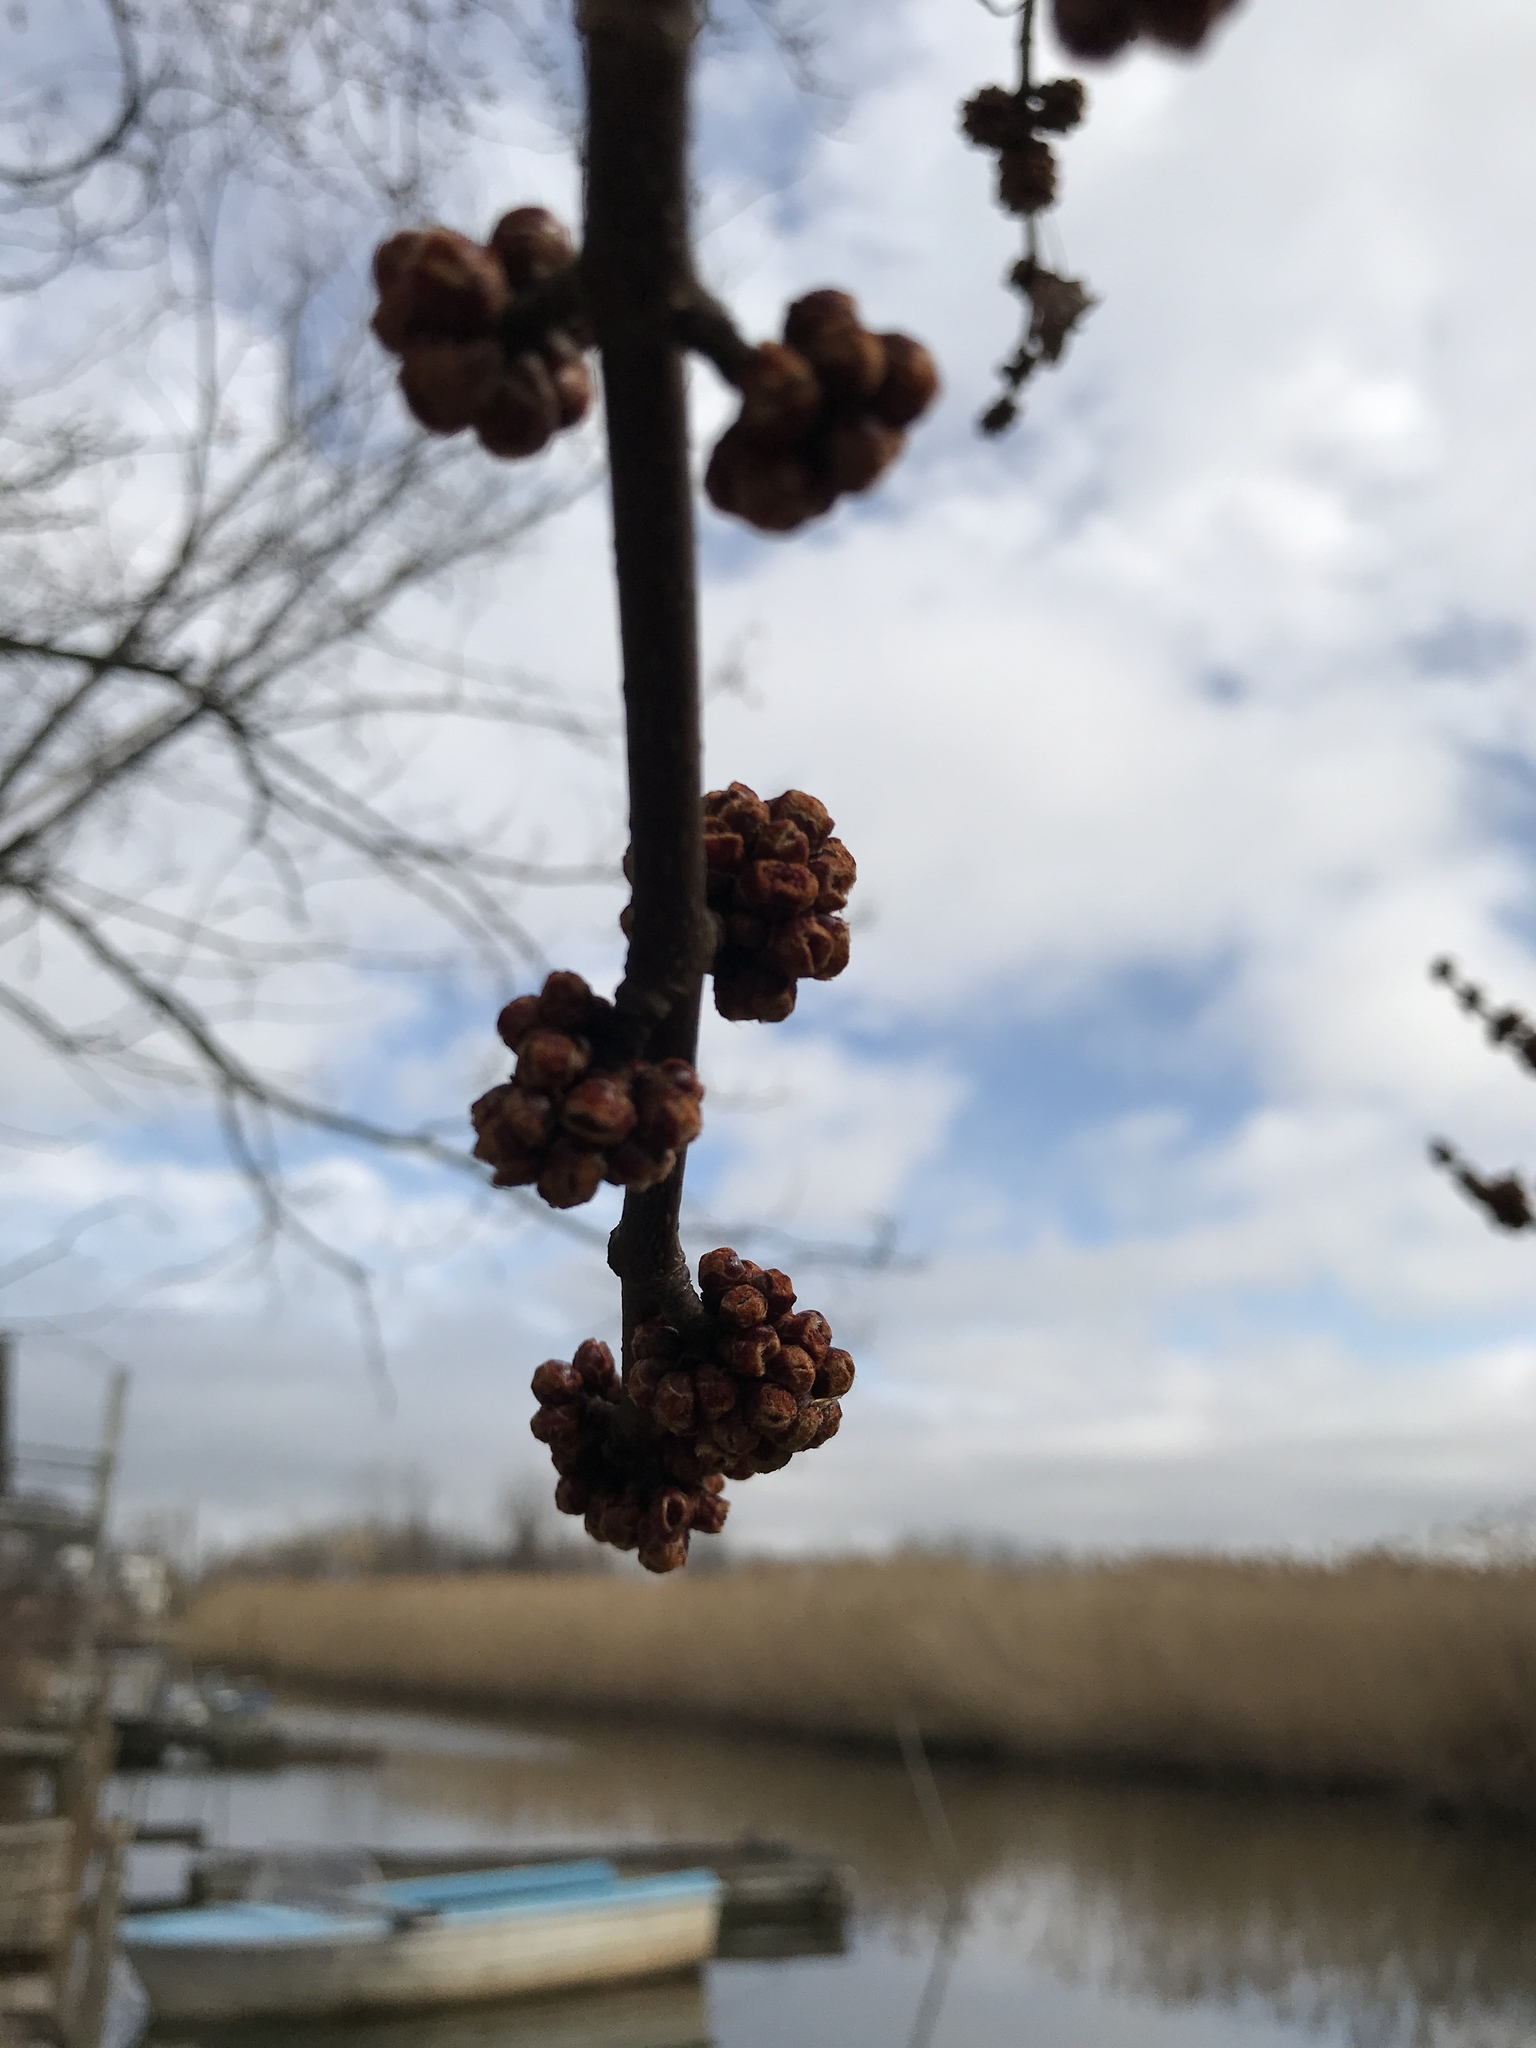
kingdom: Plantae
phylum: Tracheophyta
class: Magnoliopsida
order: Sapindales
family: Sapindaceae
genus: Acer
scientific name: Acer rubrum
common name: Red maple
